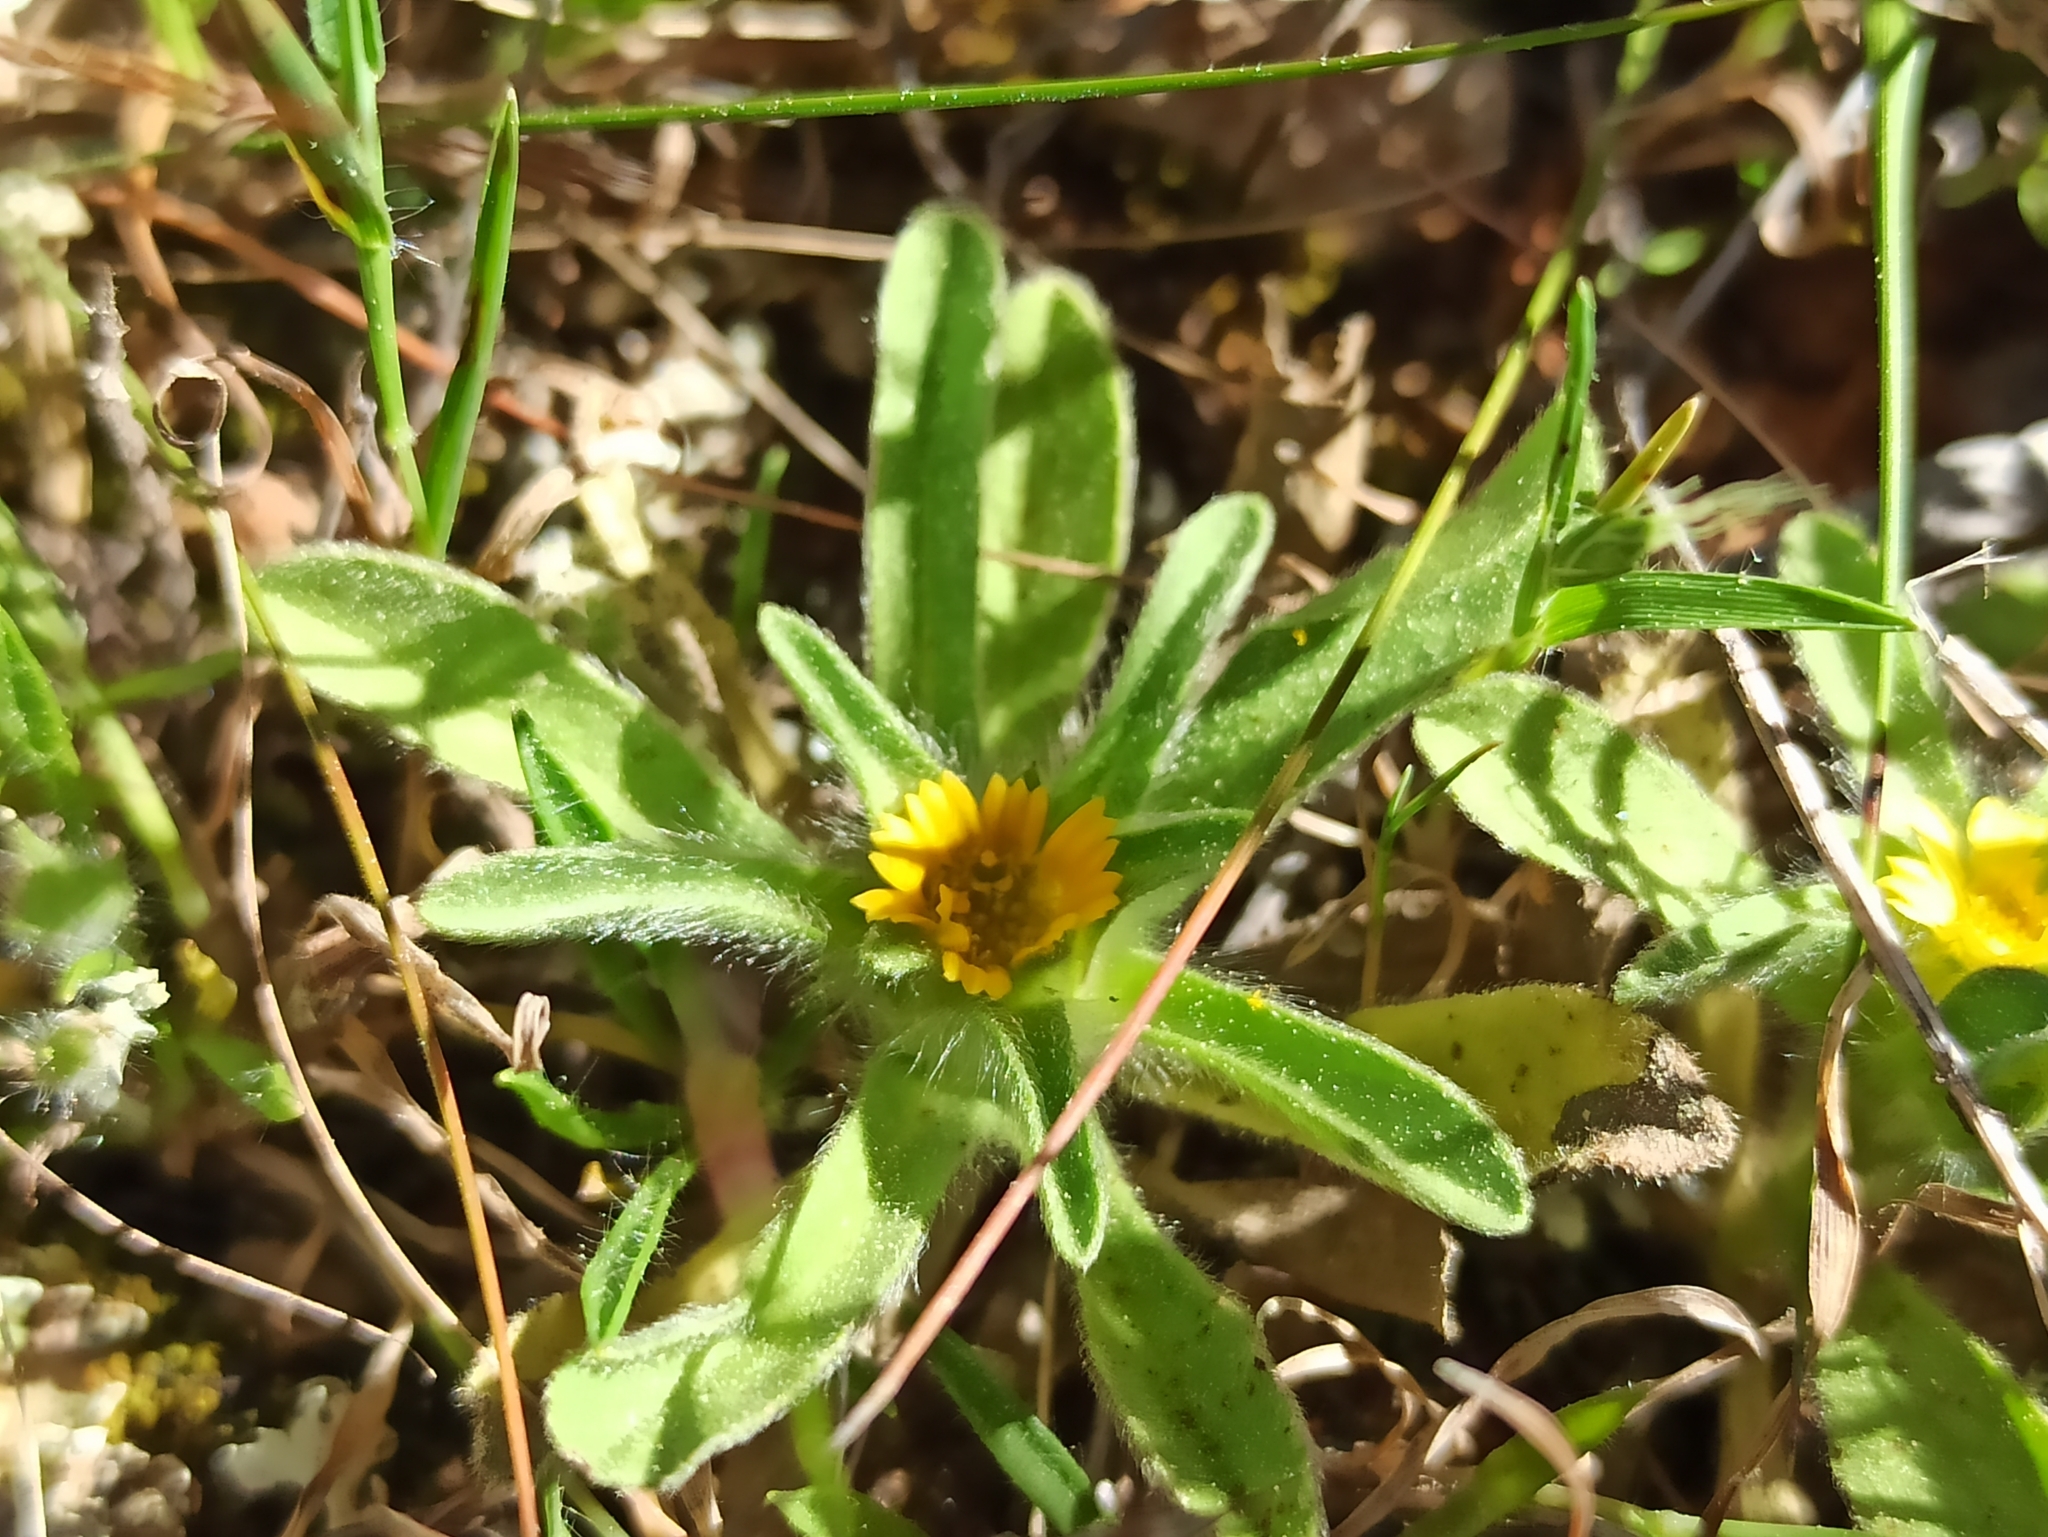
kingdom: Plantae
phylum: Tracheophyta
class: Magnoliopsida
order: Asterales
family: Asteraceae
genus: Asteriscus
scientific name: Asteriscus aquaticus
